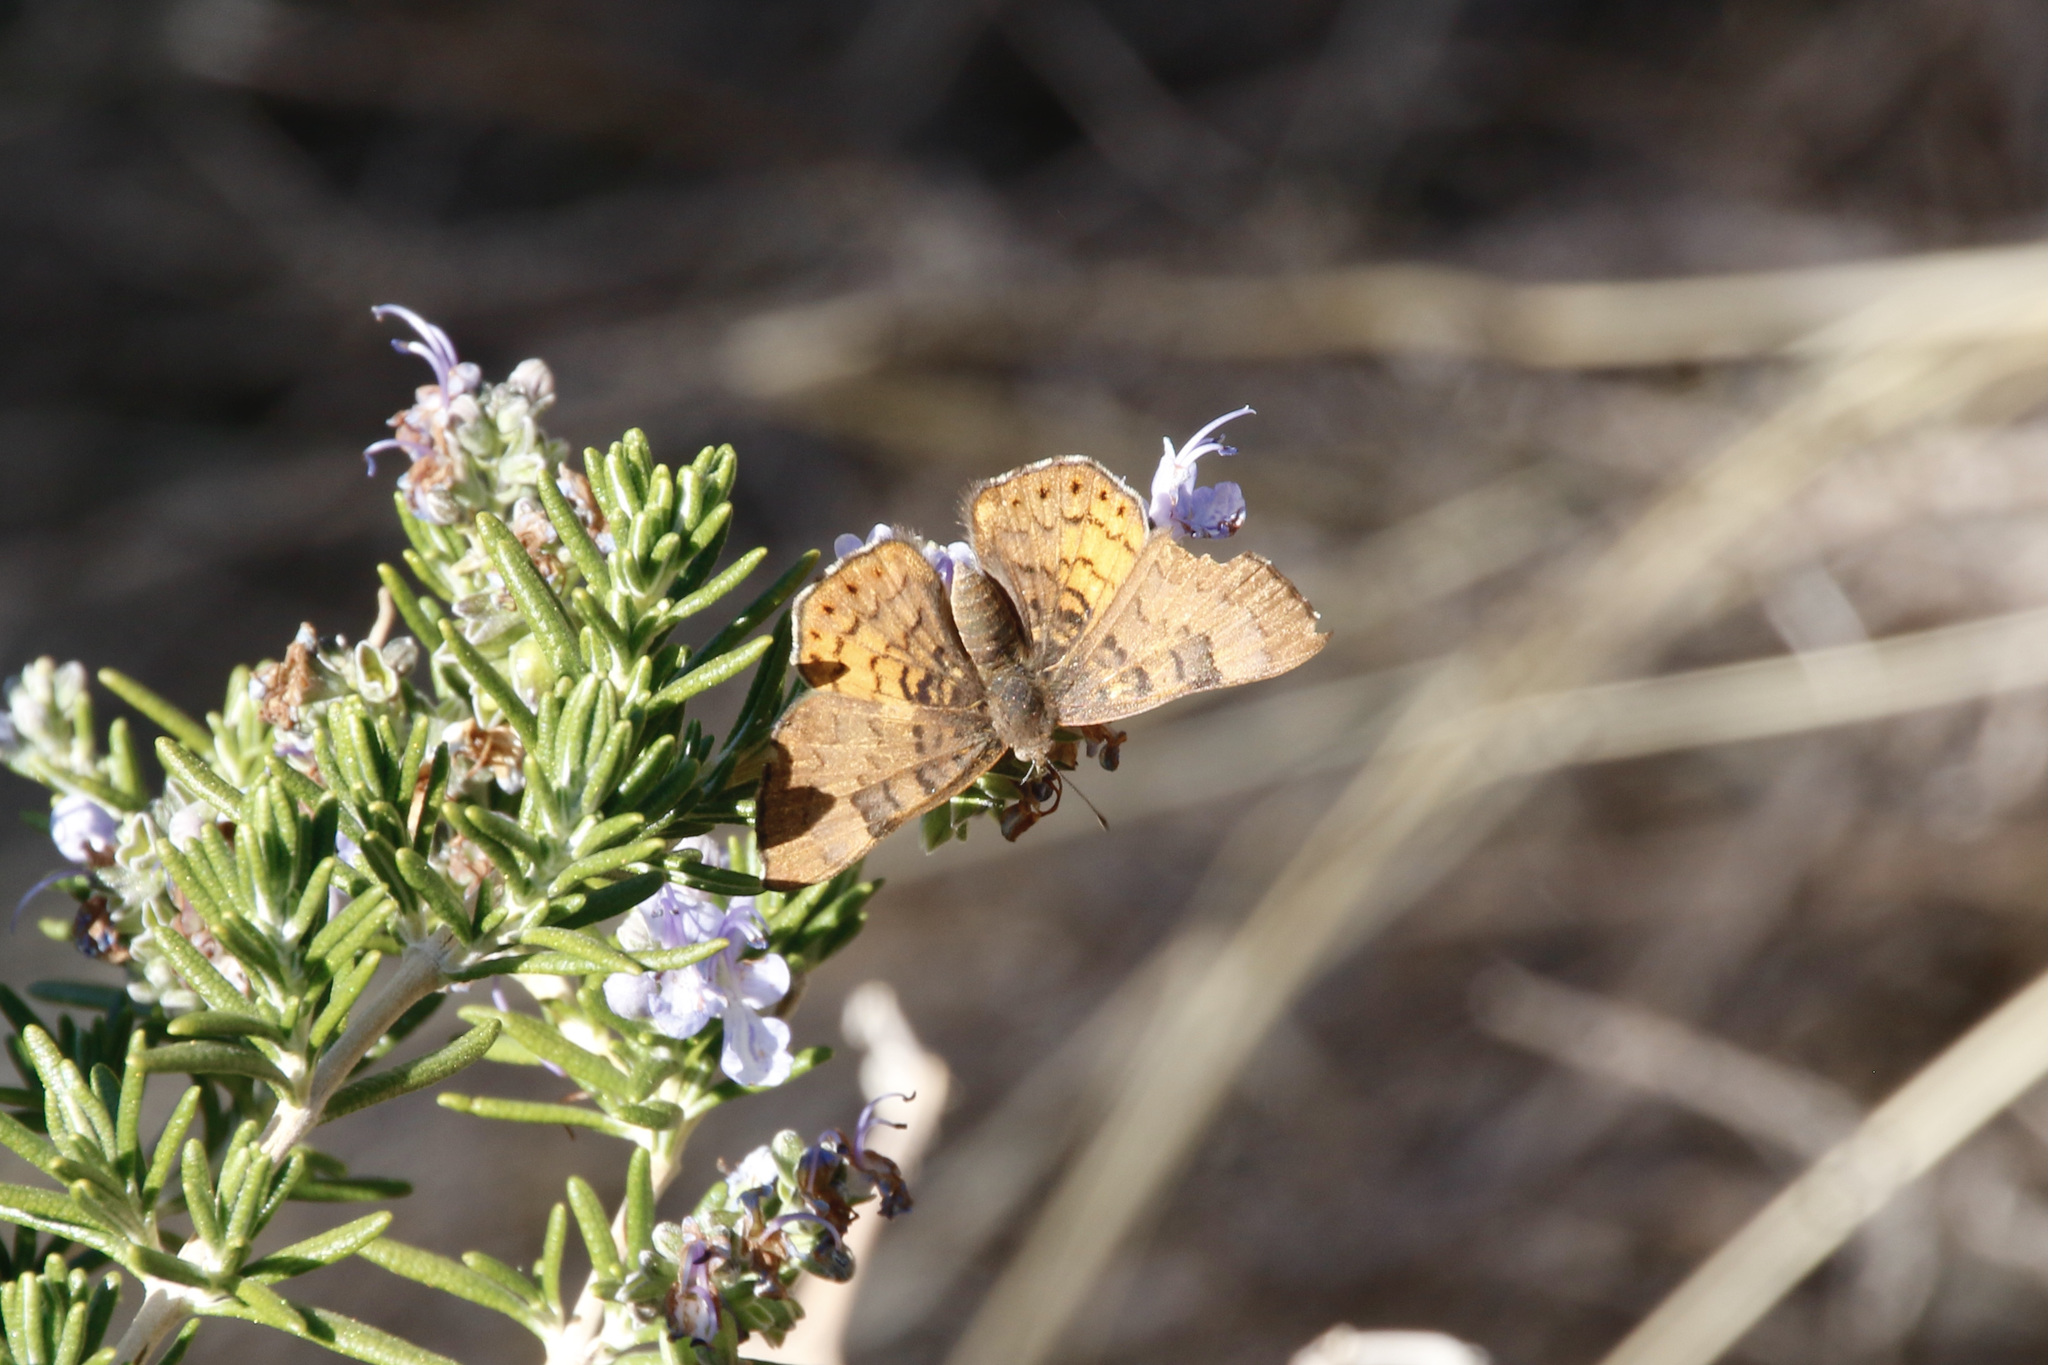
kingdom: Animalia
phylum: Arthropoda
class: Insecta
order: Lepidoptera
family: Riodinidae
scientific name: Riodinidae
